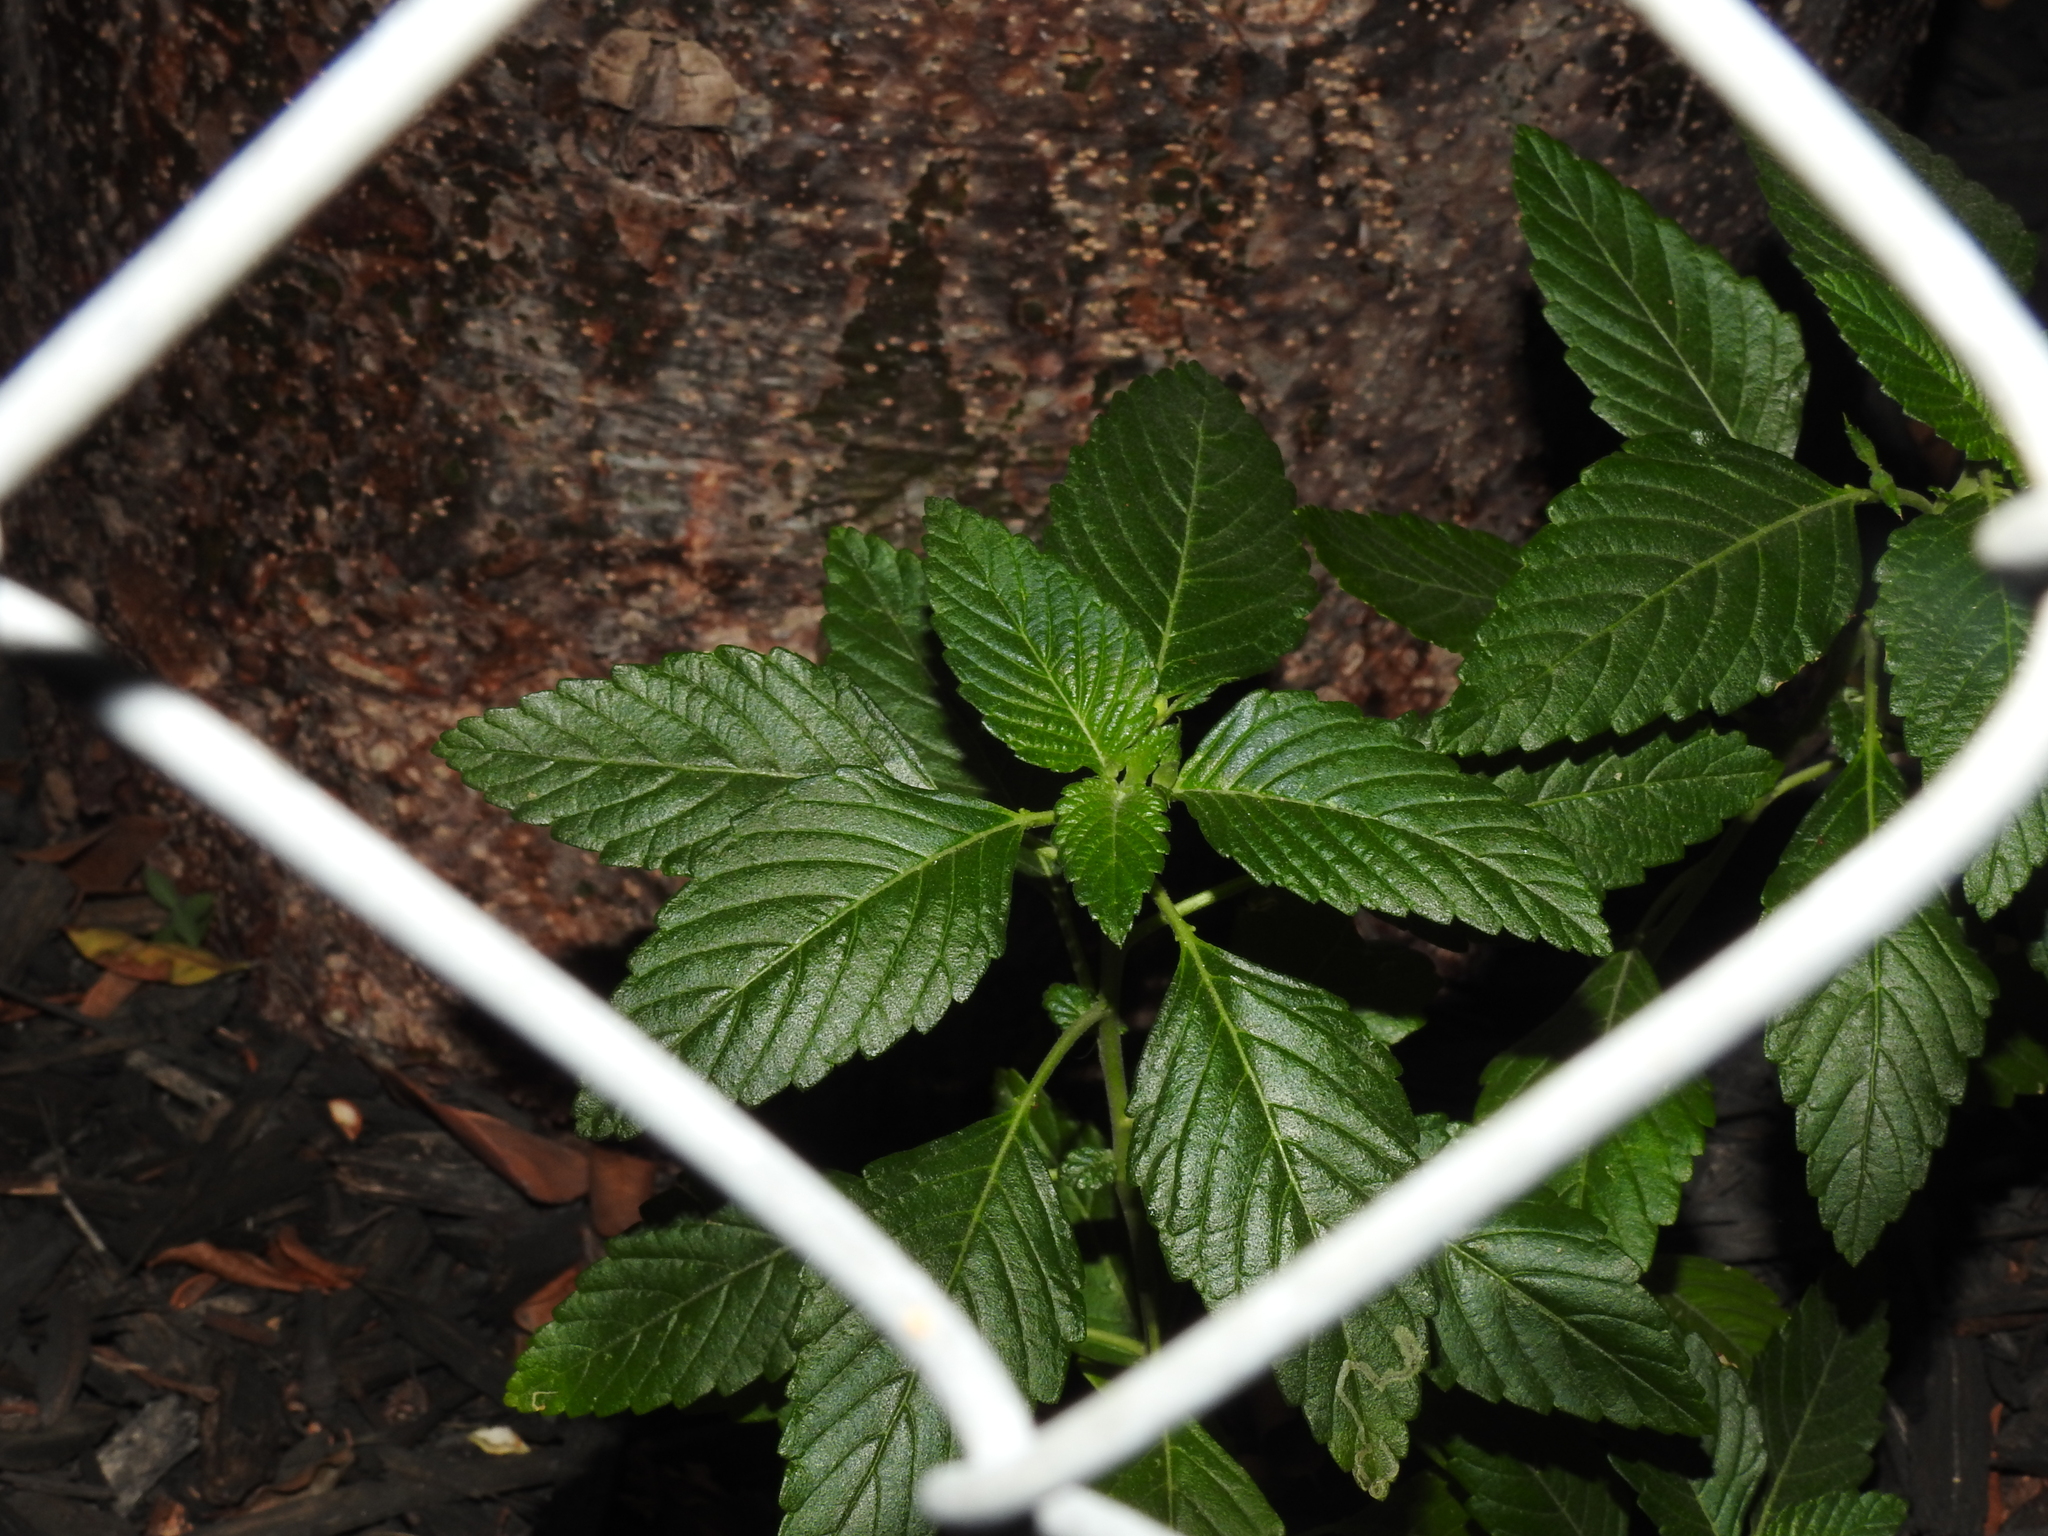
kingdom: Plantae
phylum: Tracheophyta
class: Magnoliopsida
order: Malpighiales
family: Turneraceae
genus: Turnera
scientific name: Turnera ulmifolia
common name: Ramgoat dashalong
